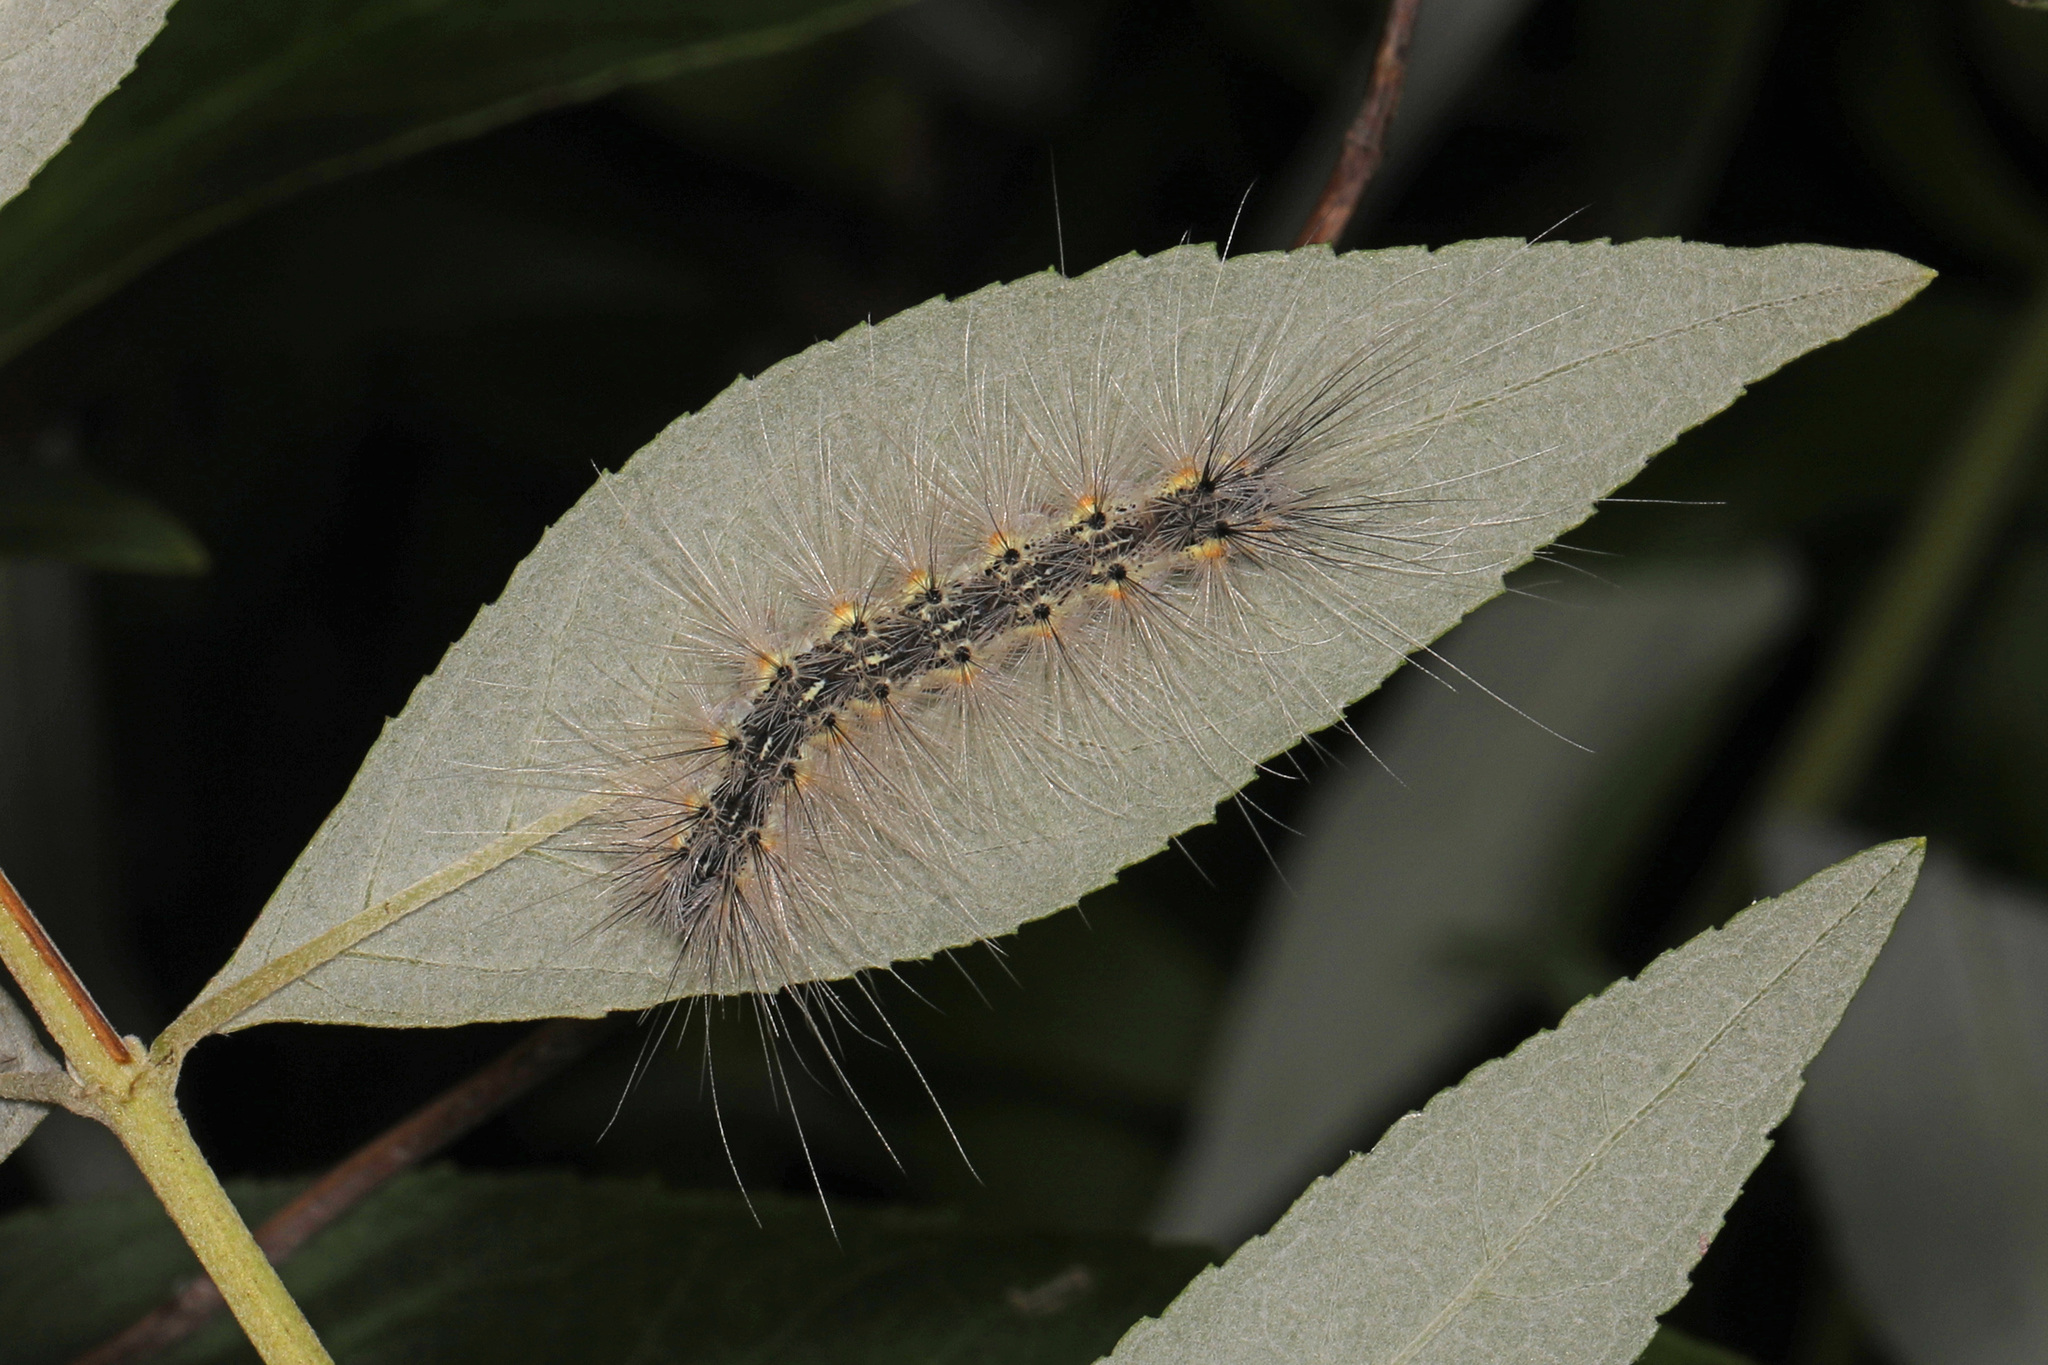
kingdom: Animalia
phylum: Arthropoda
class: Insecta
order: Lepidoptera
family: Erebidae
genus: Hyphantria
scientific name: Hyphantria cunea
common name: American white moth
